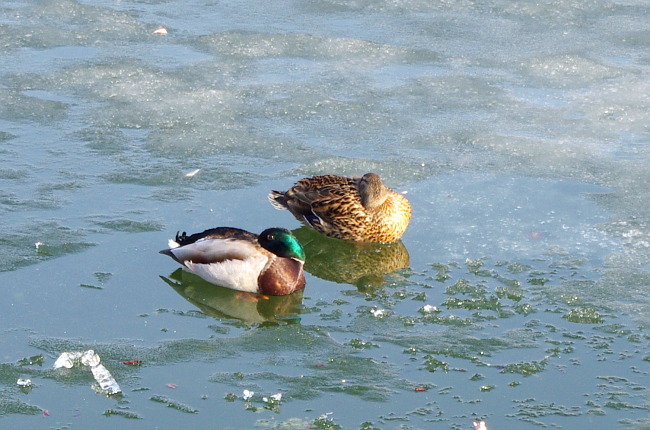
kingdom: Animalia
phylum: Chordata
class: Aves
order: Anseriformes
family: Anatidae
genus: Anas
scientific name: Anas platyrhynchos
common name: Mallard
